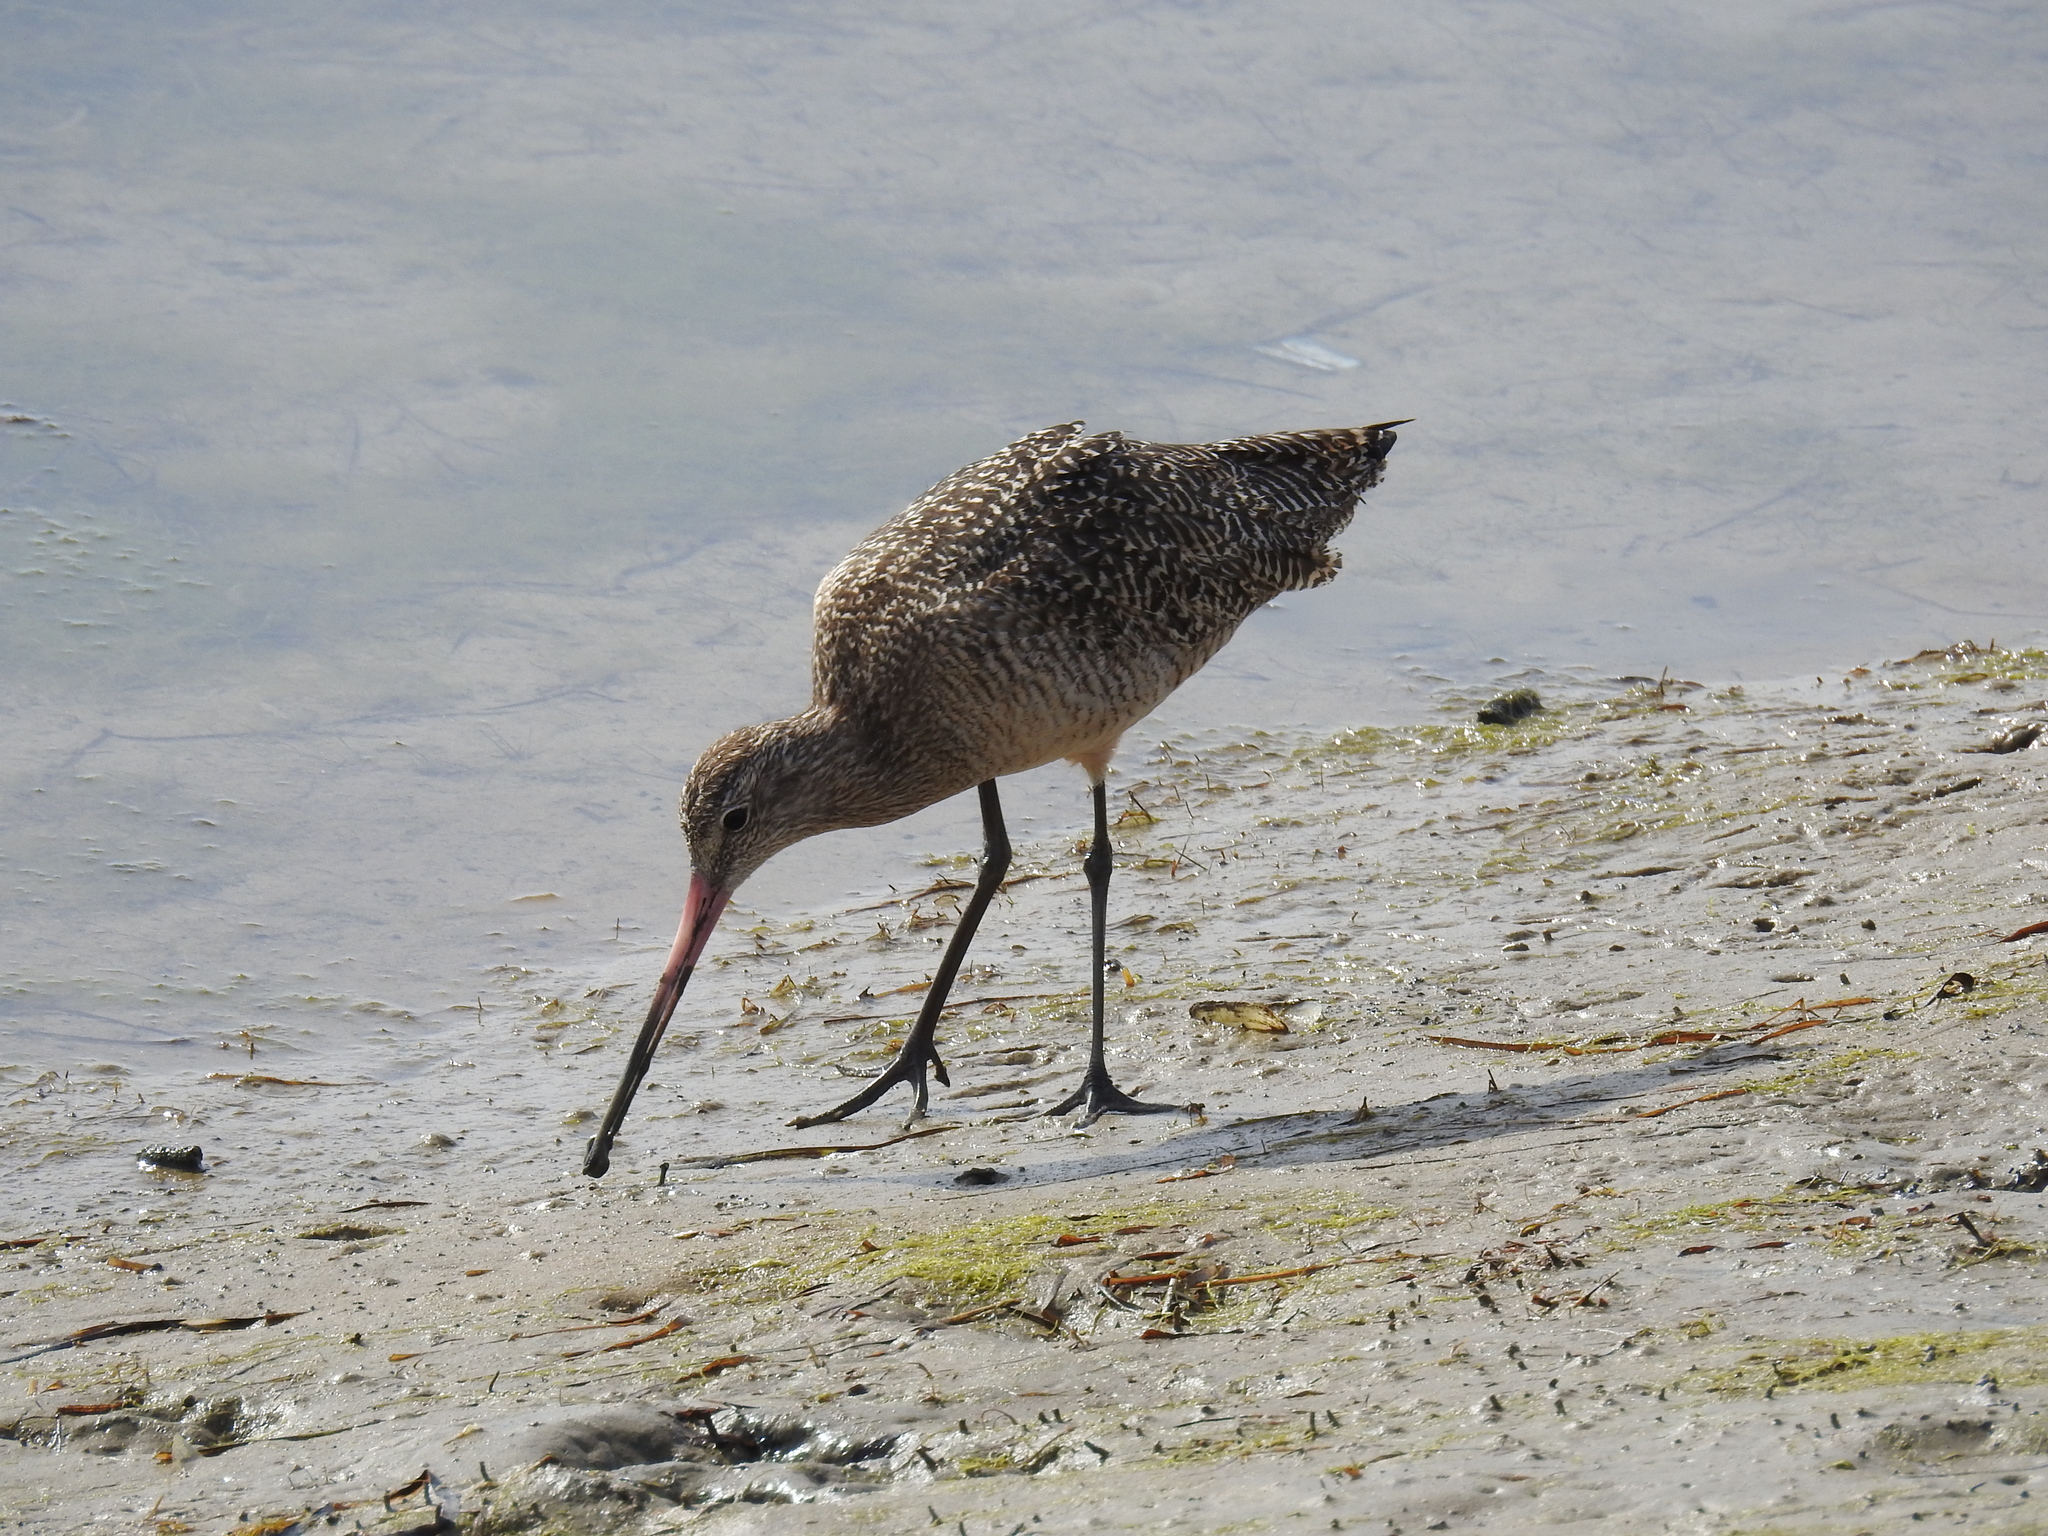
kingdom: Animalia
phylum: Chordata
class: Aves
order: Charadriiformes
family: Scolopacidae
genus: Limosa
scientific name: Limosa fedoa
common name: Marbled godwit
